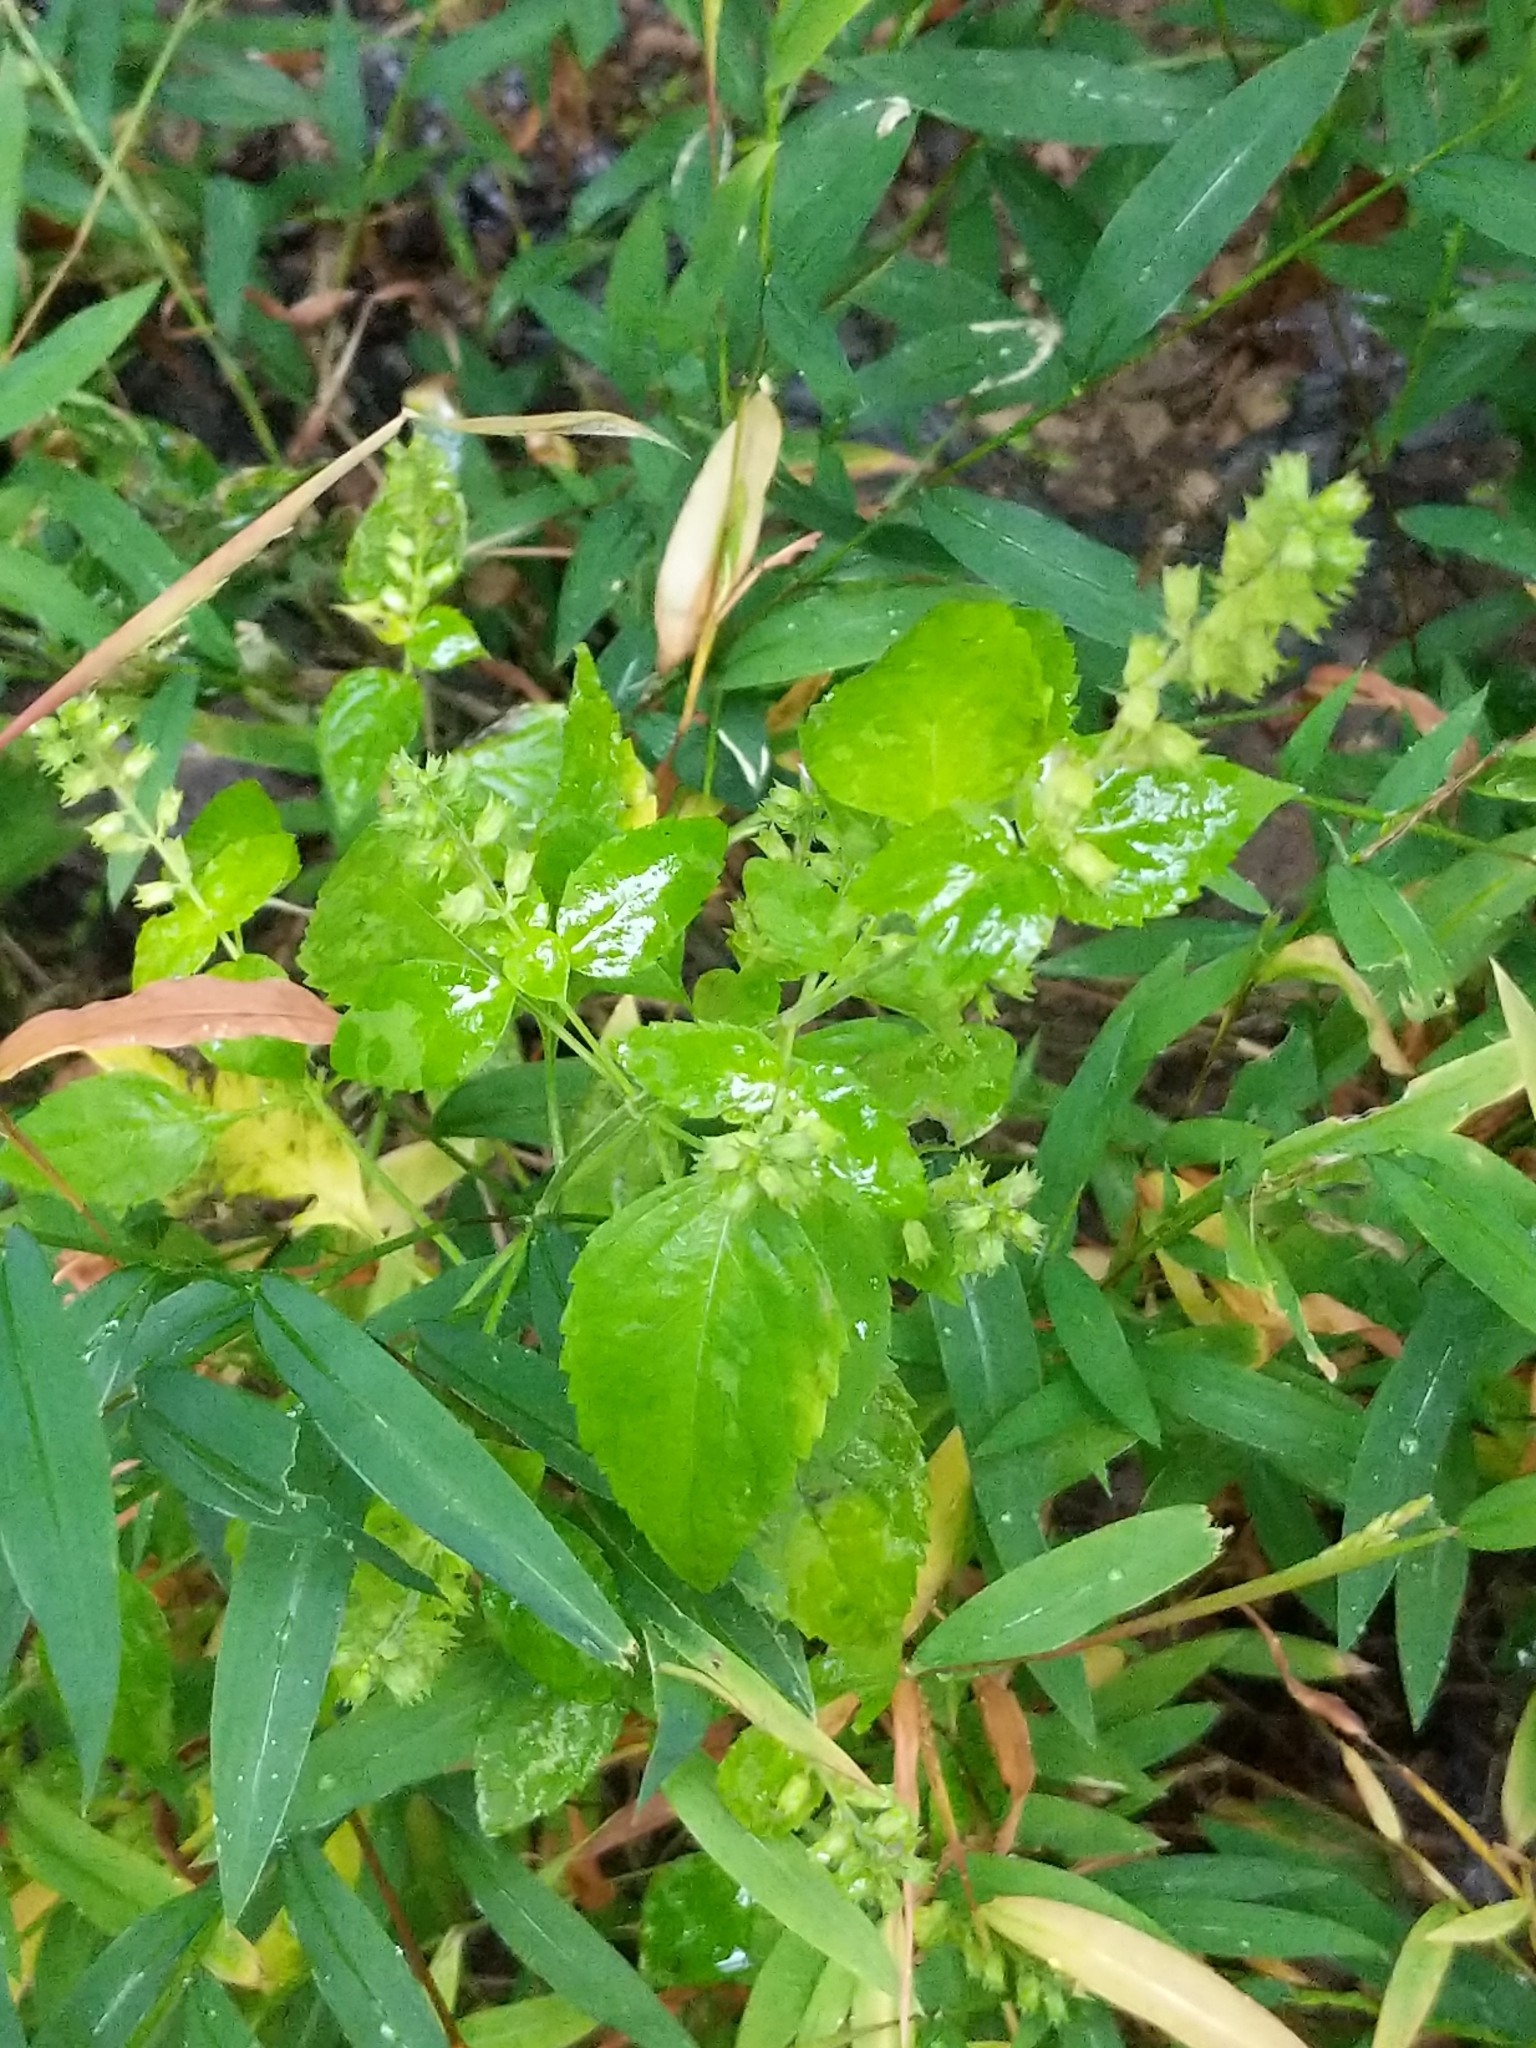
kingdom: Plantae
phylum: Tracheophyta
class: Magnoliopsida
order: Lamiales
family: Lamiaceae
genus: Mosla
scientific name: Mosla dianthera
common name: Miniature beefsteakplant
